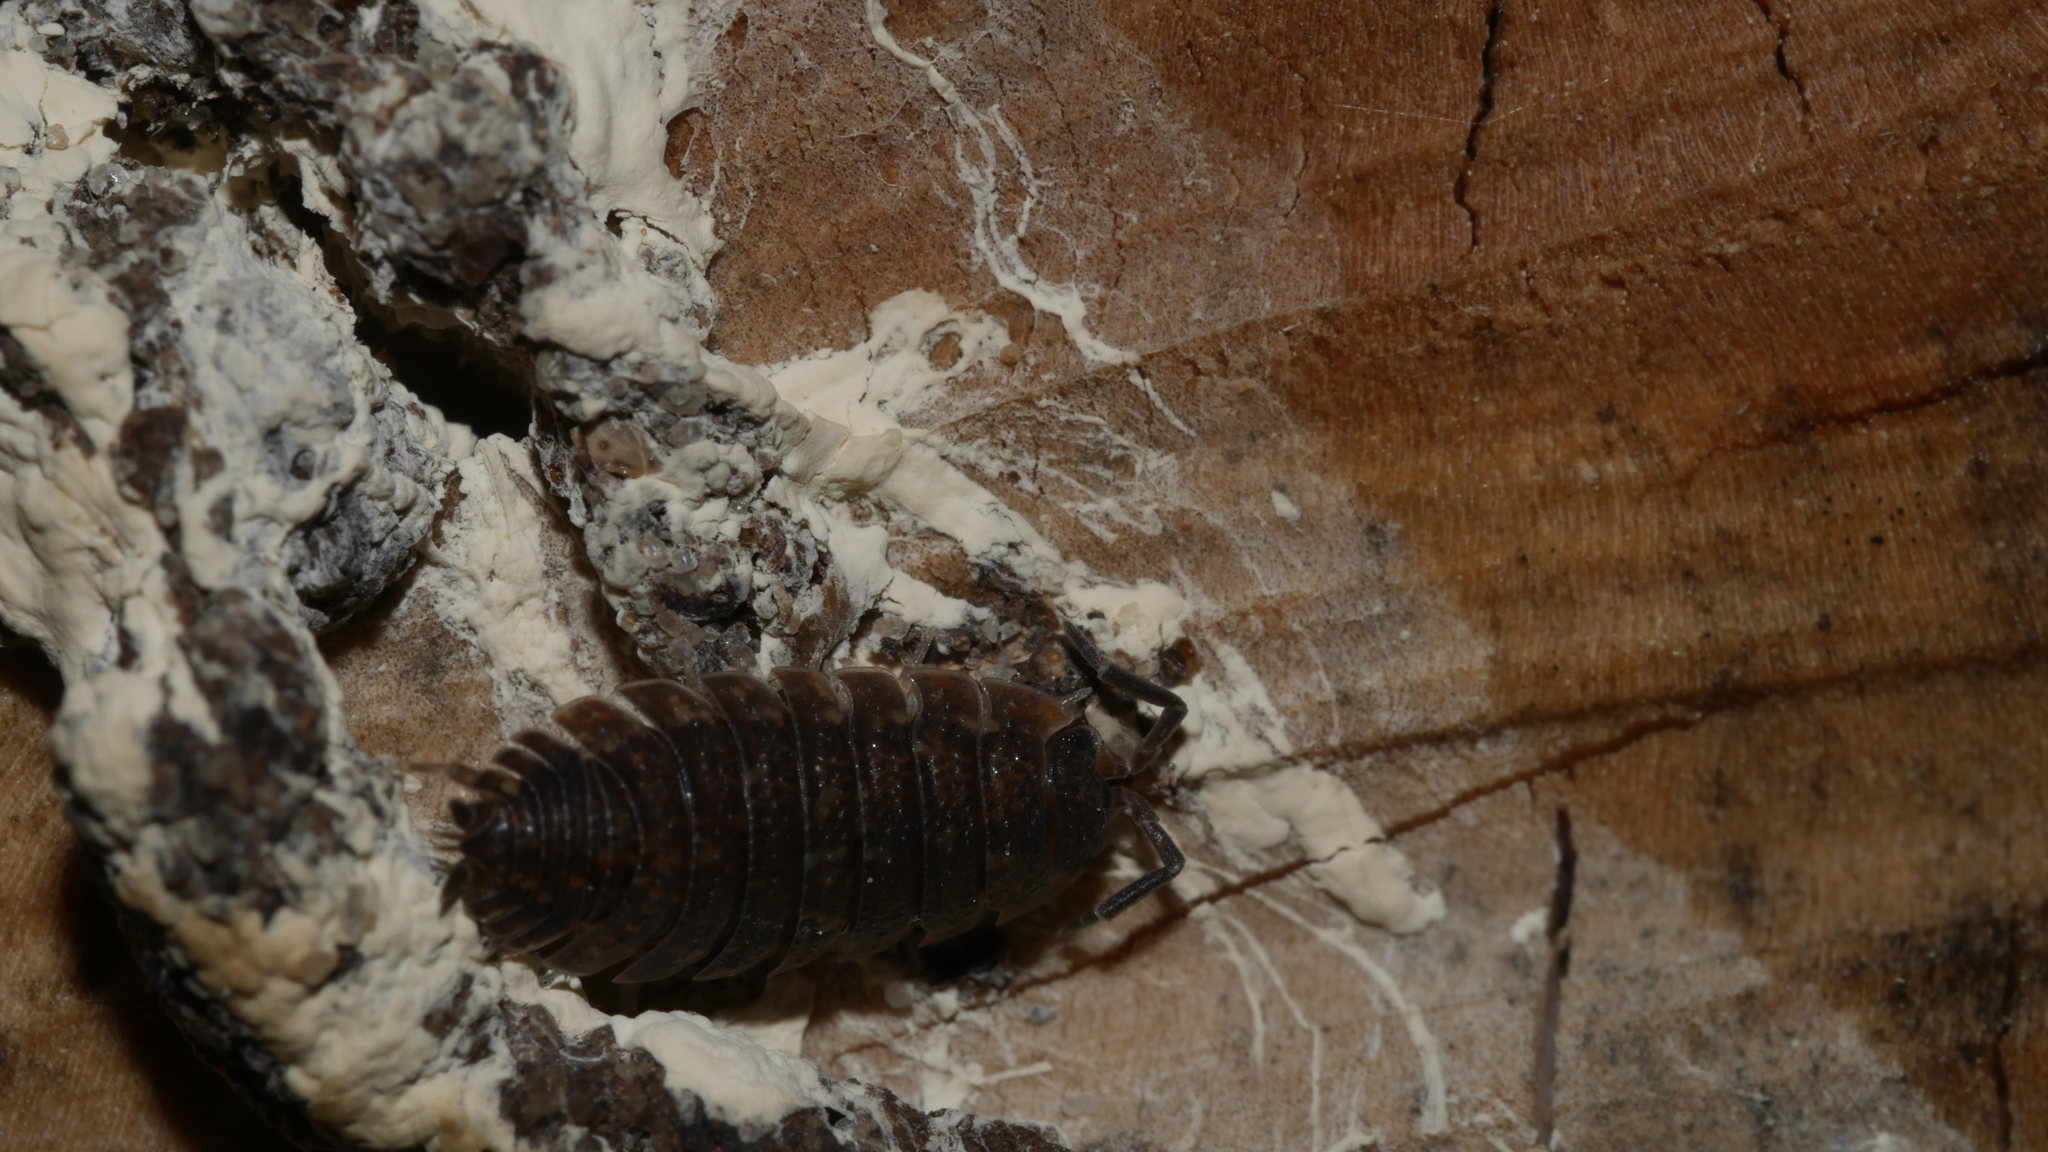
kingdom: Animalia
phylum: Arthropoda
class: Malacostraca
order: Isopoda
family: Porcellionidae
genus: Porcellio
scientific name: Porcellio scaber
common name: Common rough woodlouse
